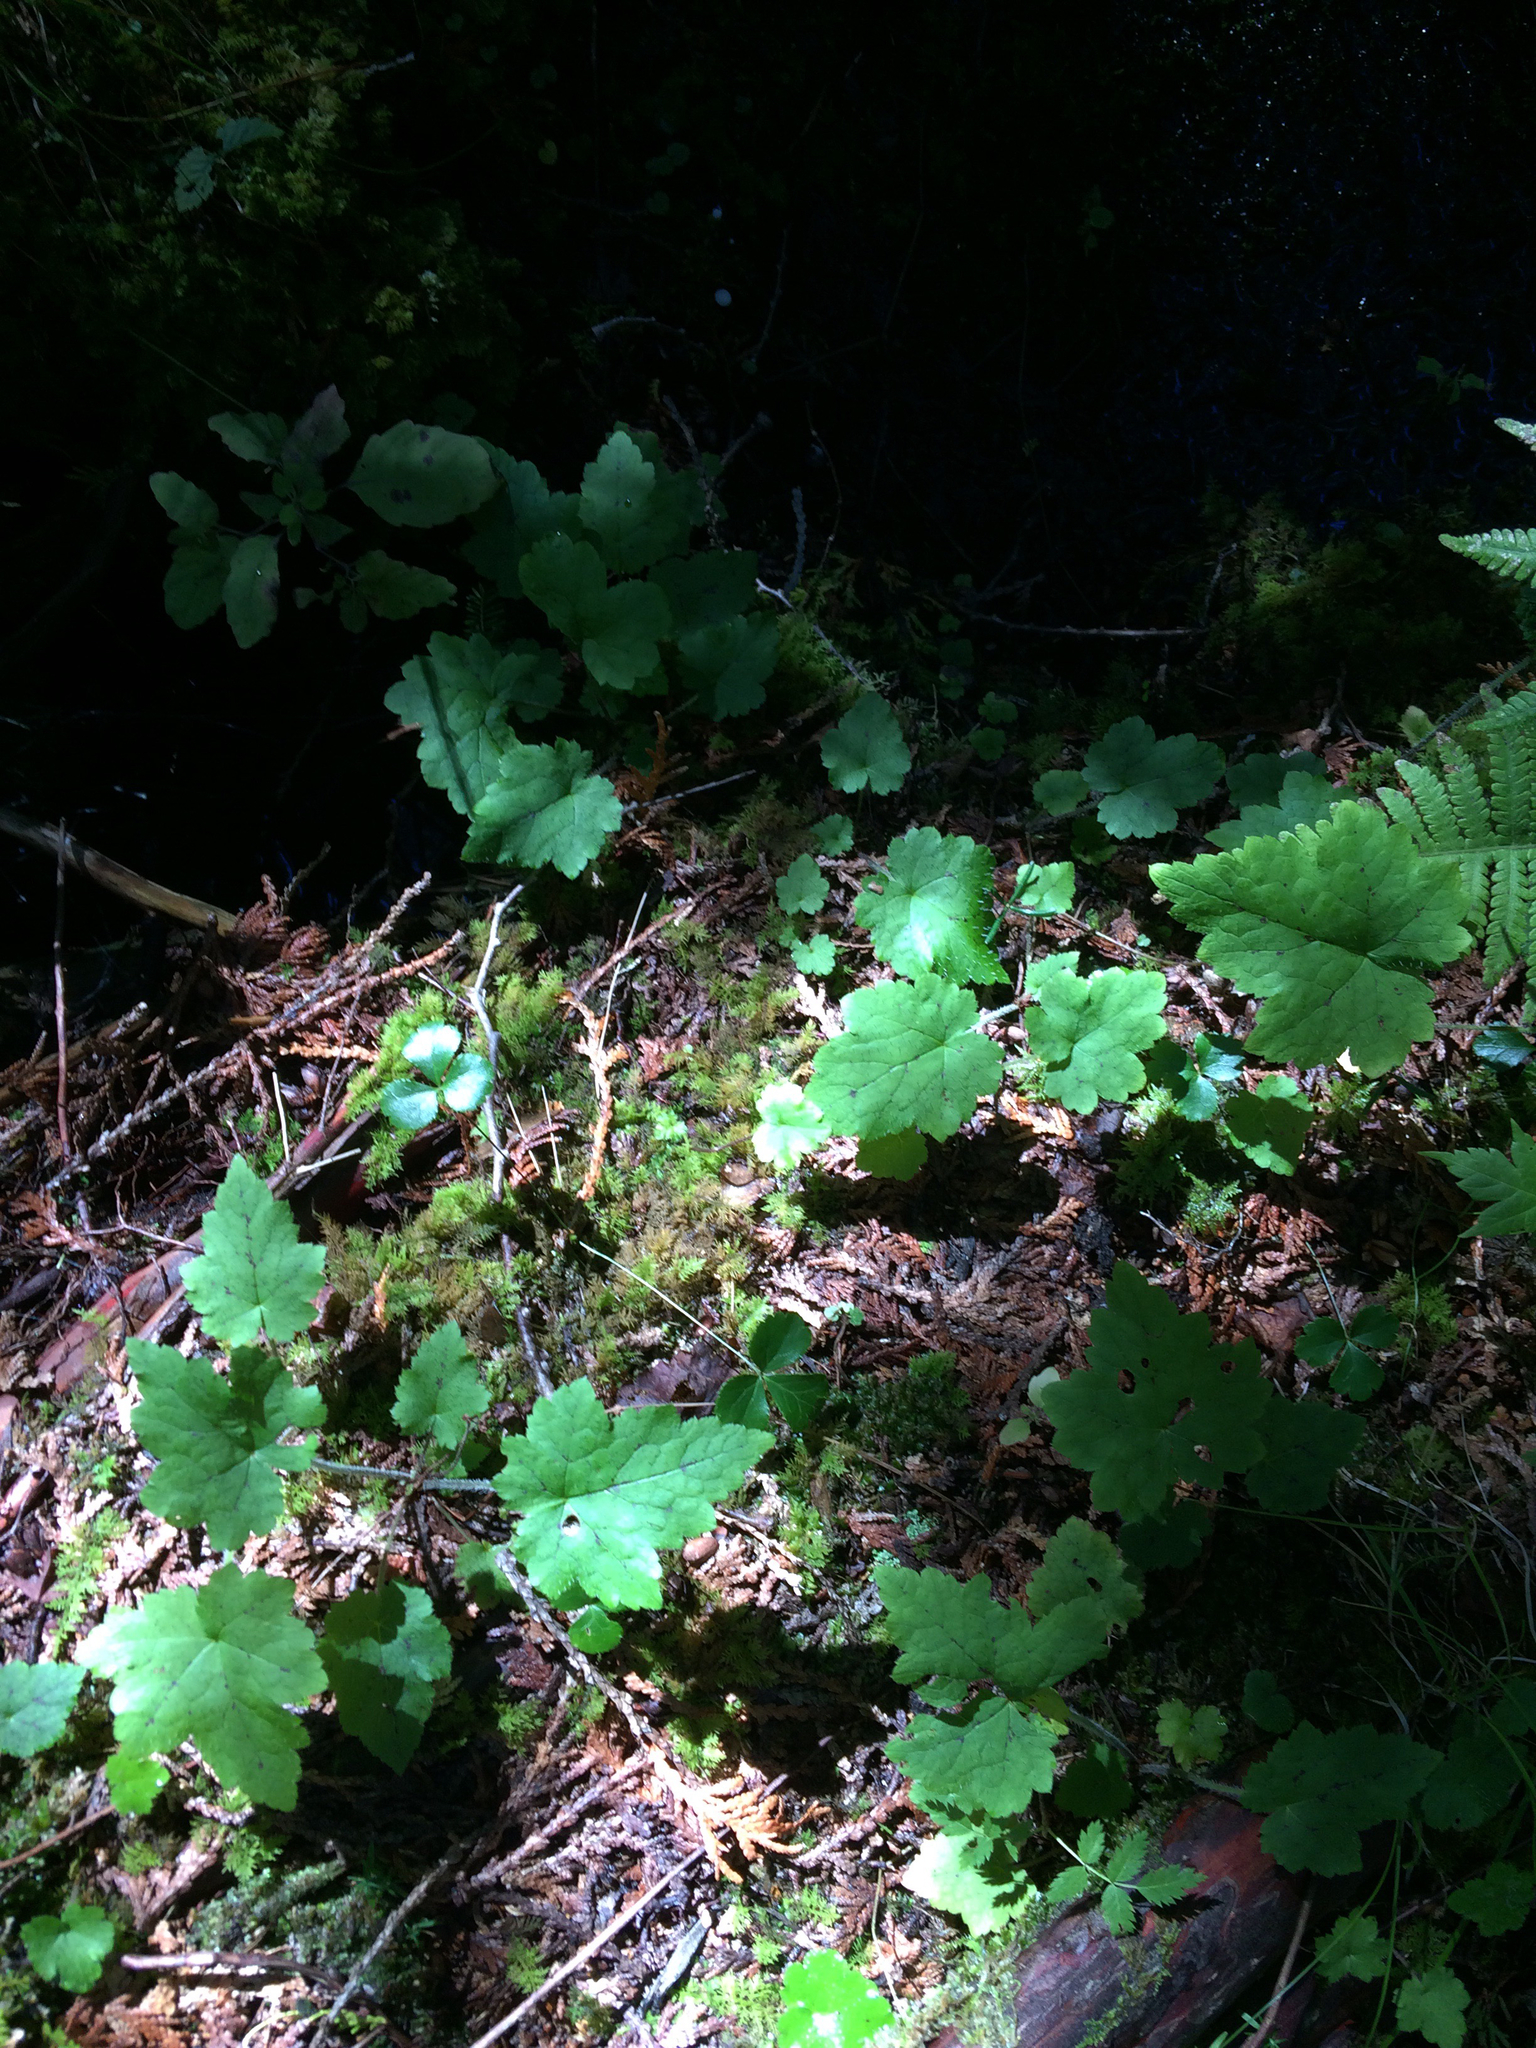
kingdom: Plantae
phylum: Tracheophyta
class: Magnoliopsida
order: Saxifragales
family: Saxifragaceae
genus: Tiarella
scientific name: Tiarella stolonifera
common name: Stoloniferous foamflower
